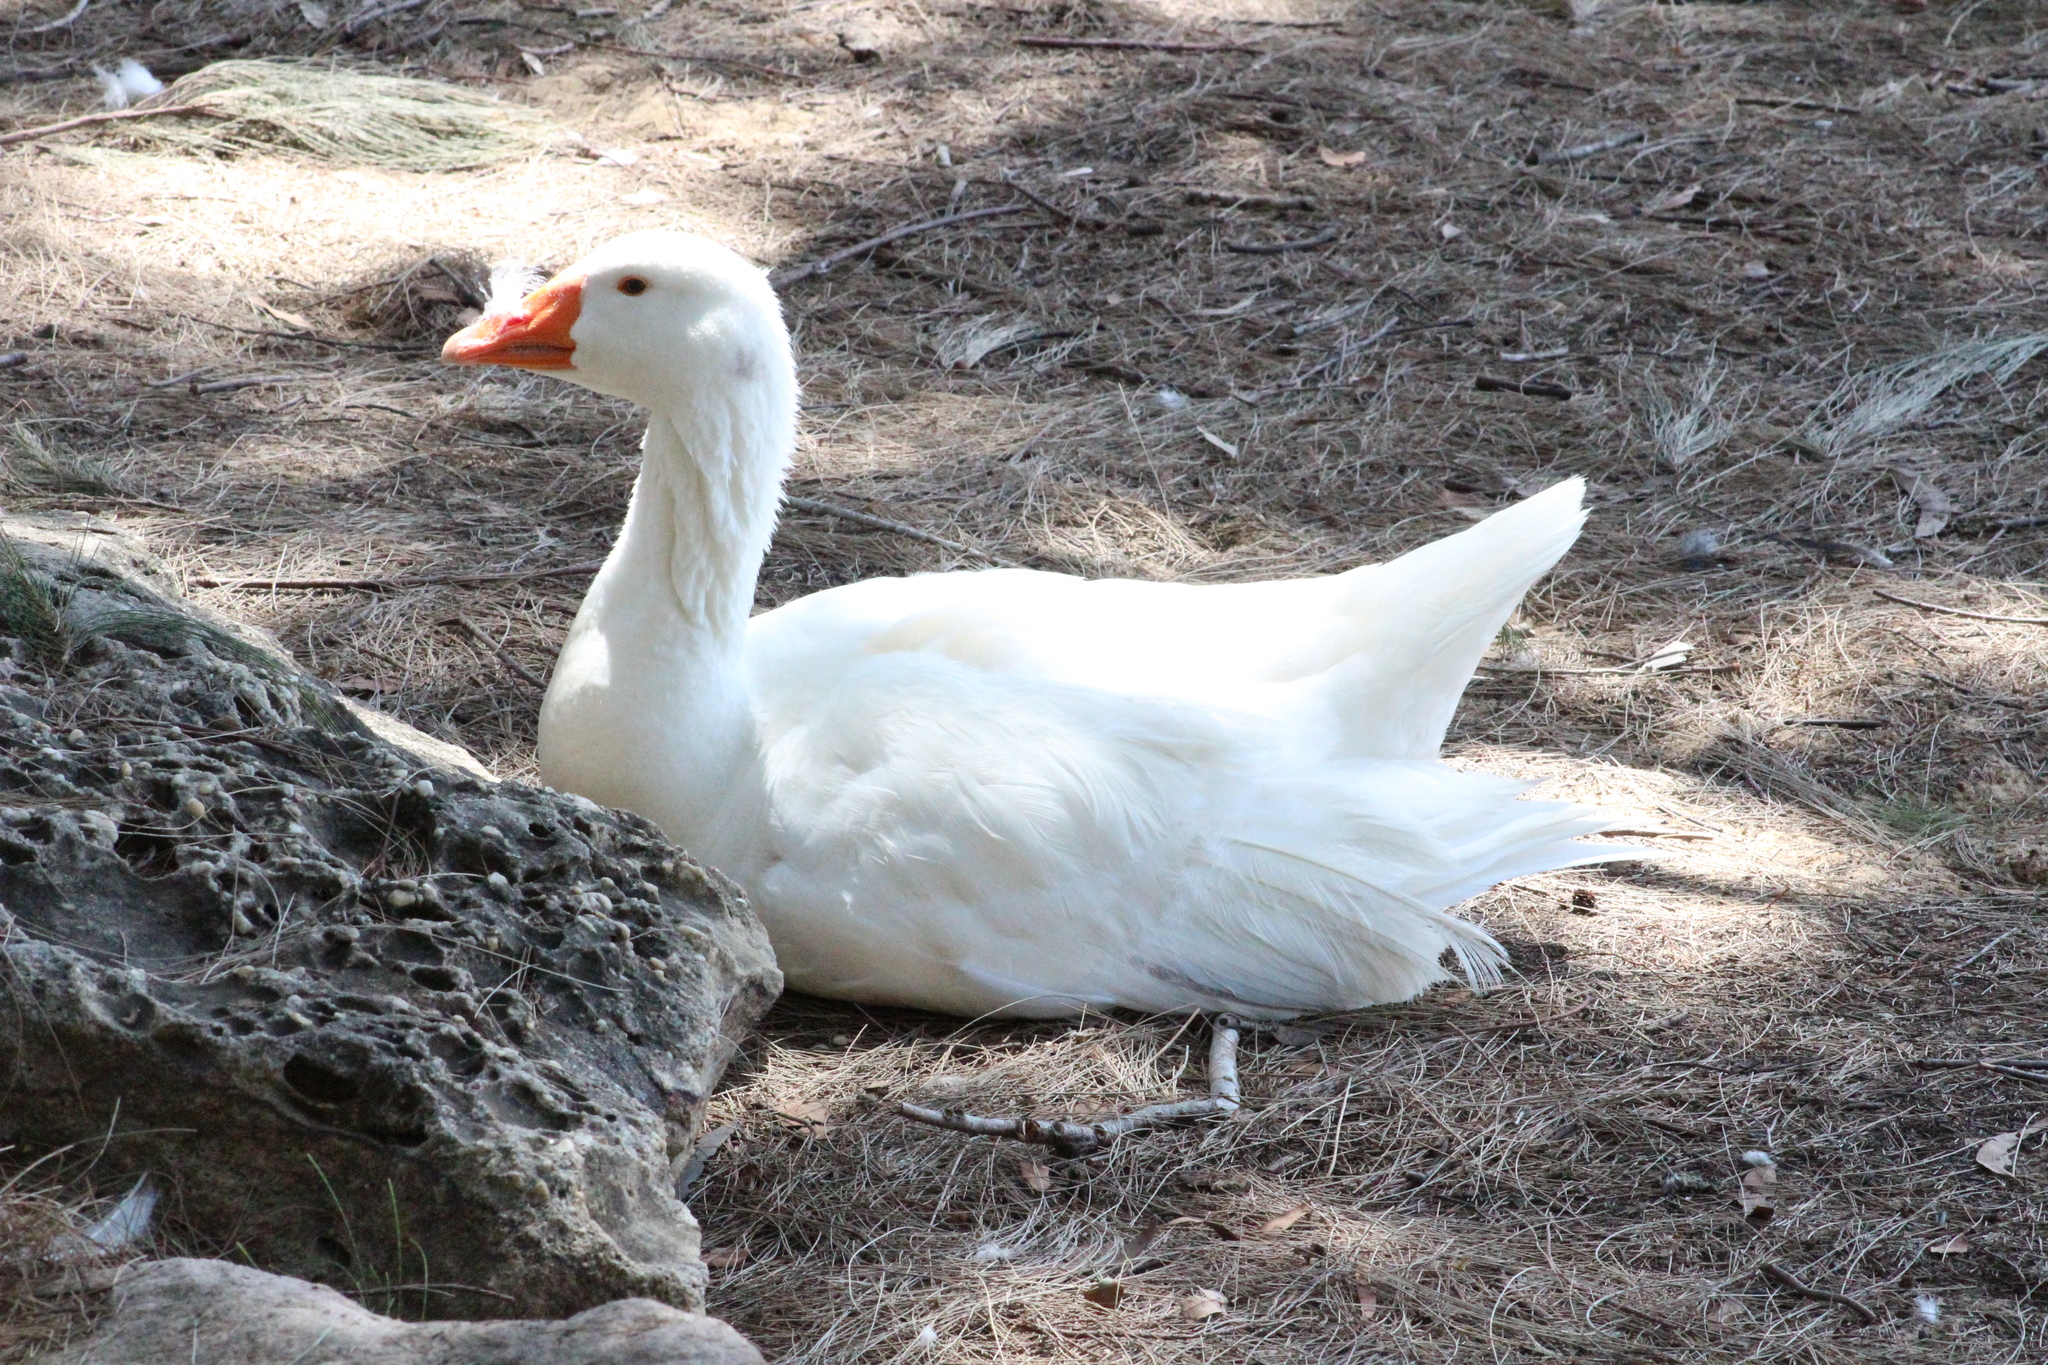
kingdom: Animalia
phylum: Chordata
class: Aves
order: Anseriformes
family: Anatidae
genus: Anser
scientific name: Anser anser
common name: Greylag goose
